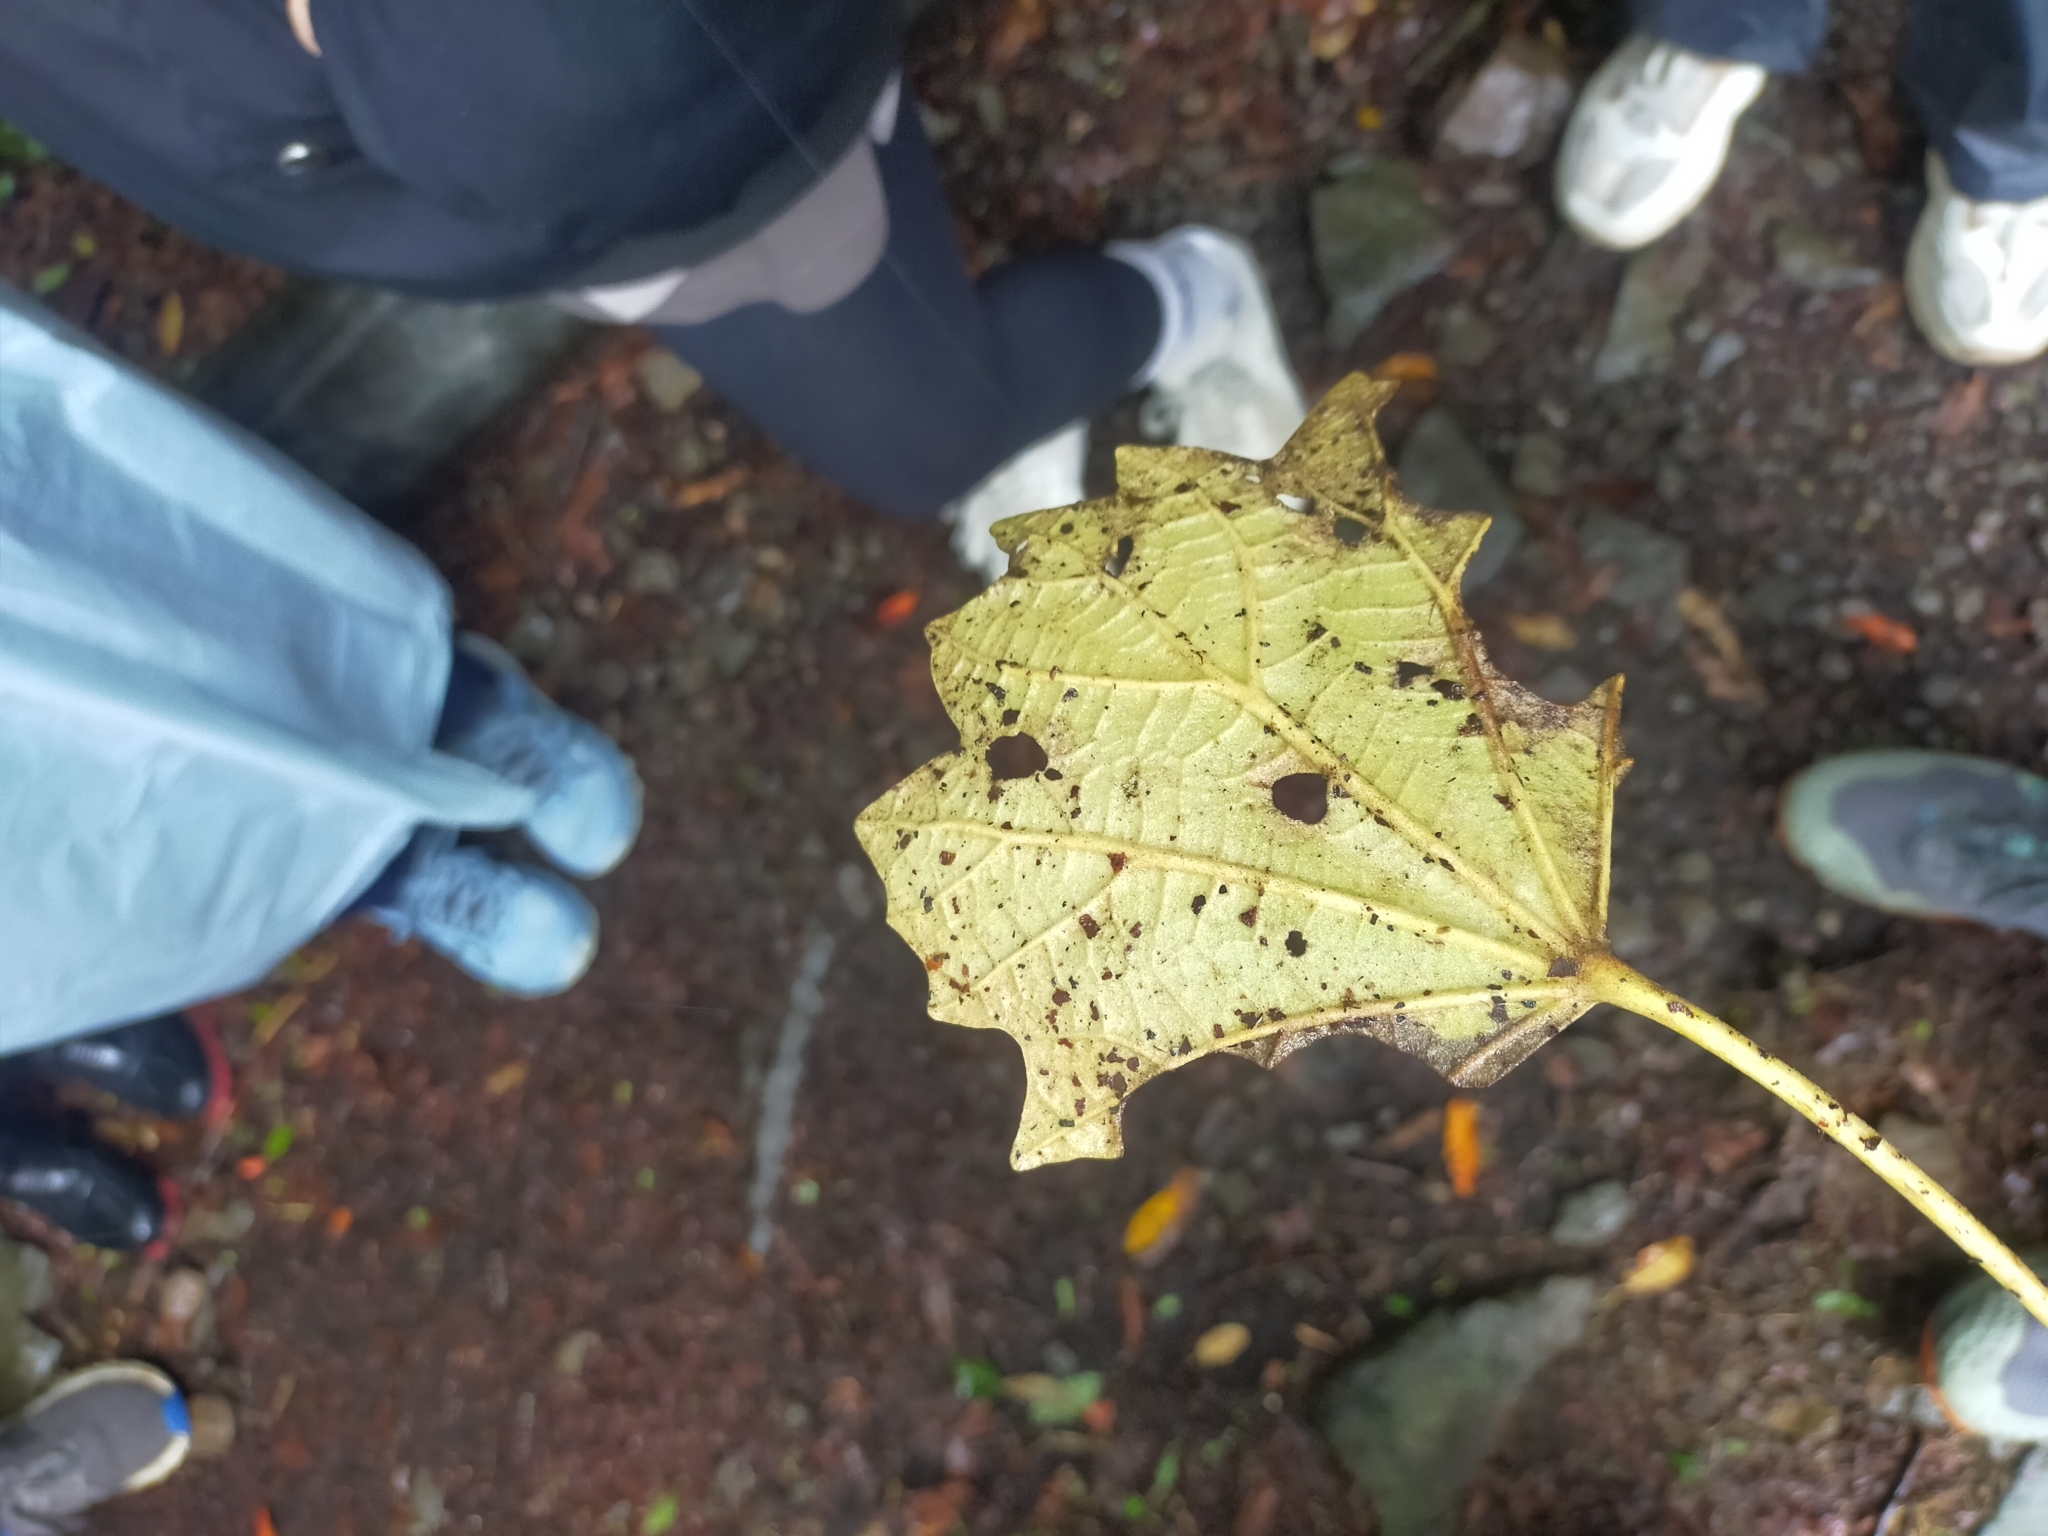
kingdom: Plantae
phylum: Tracheophyta
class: Magnoliopsida
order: Apiales
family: Araliaceae
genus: Sinopanax
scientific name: Sinopanax formosanus
